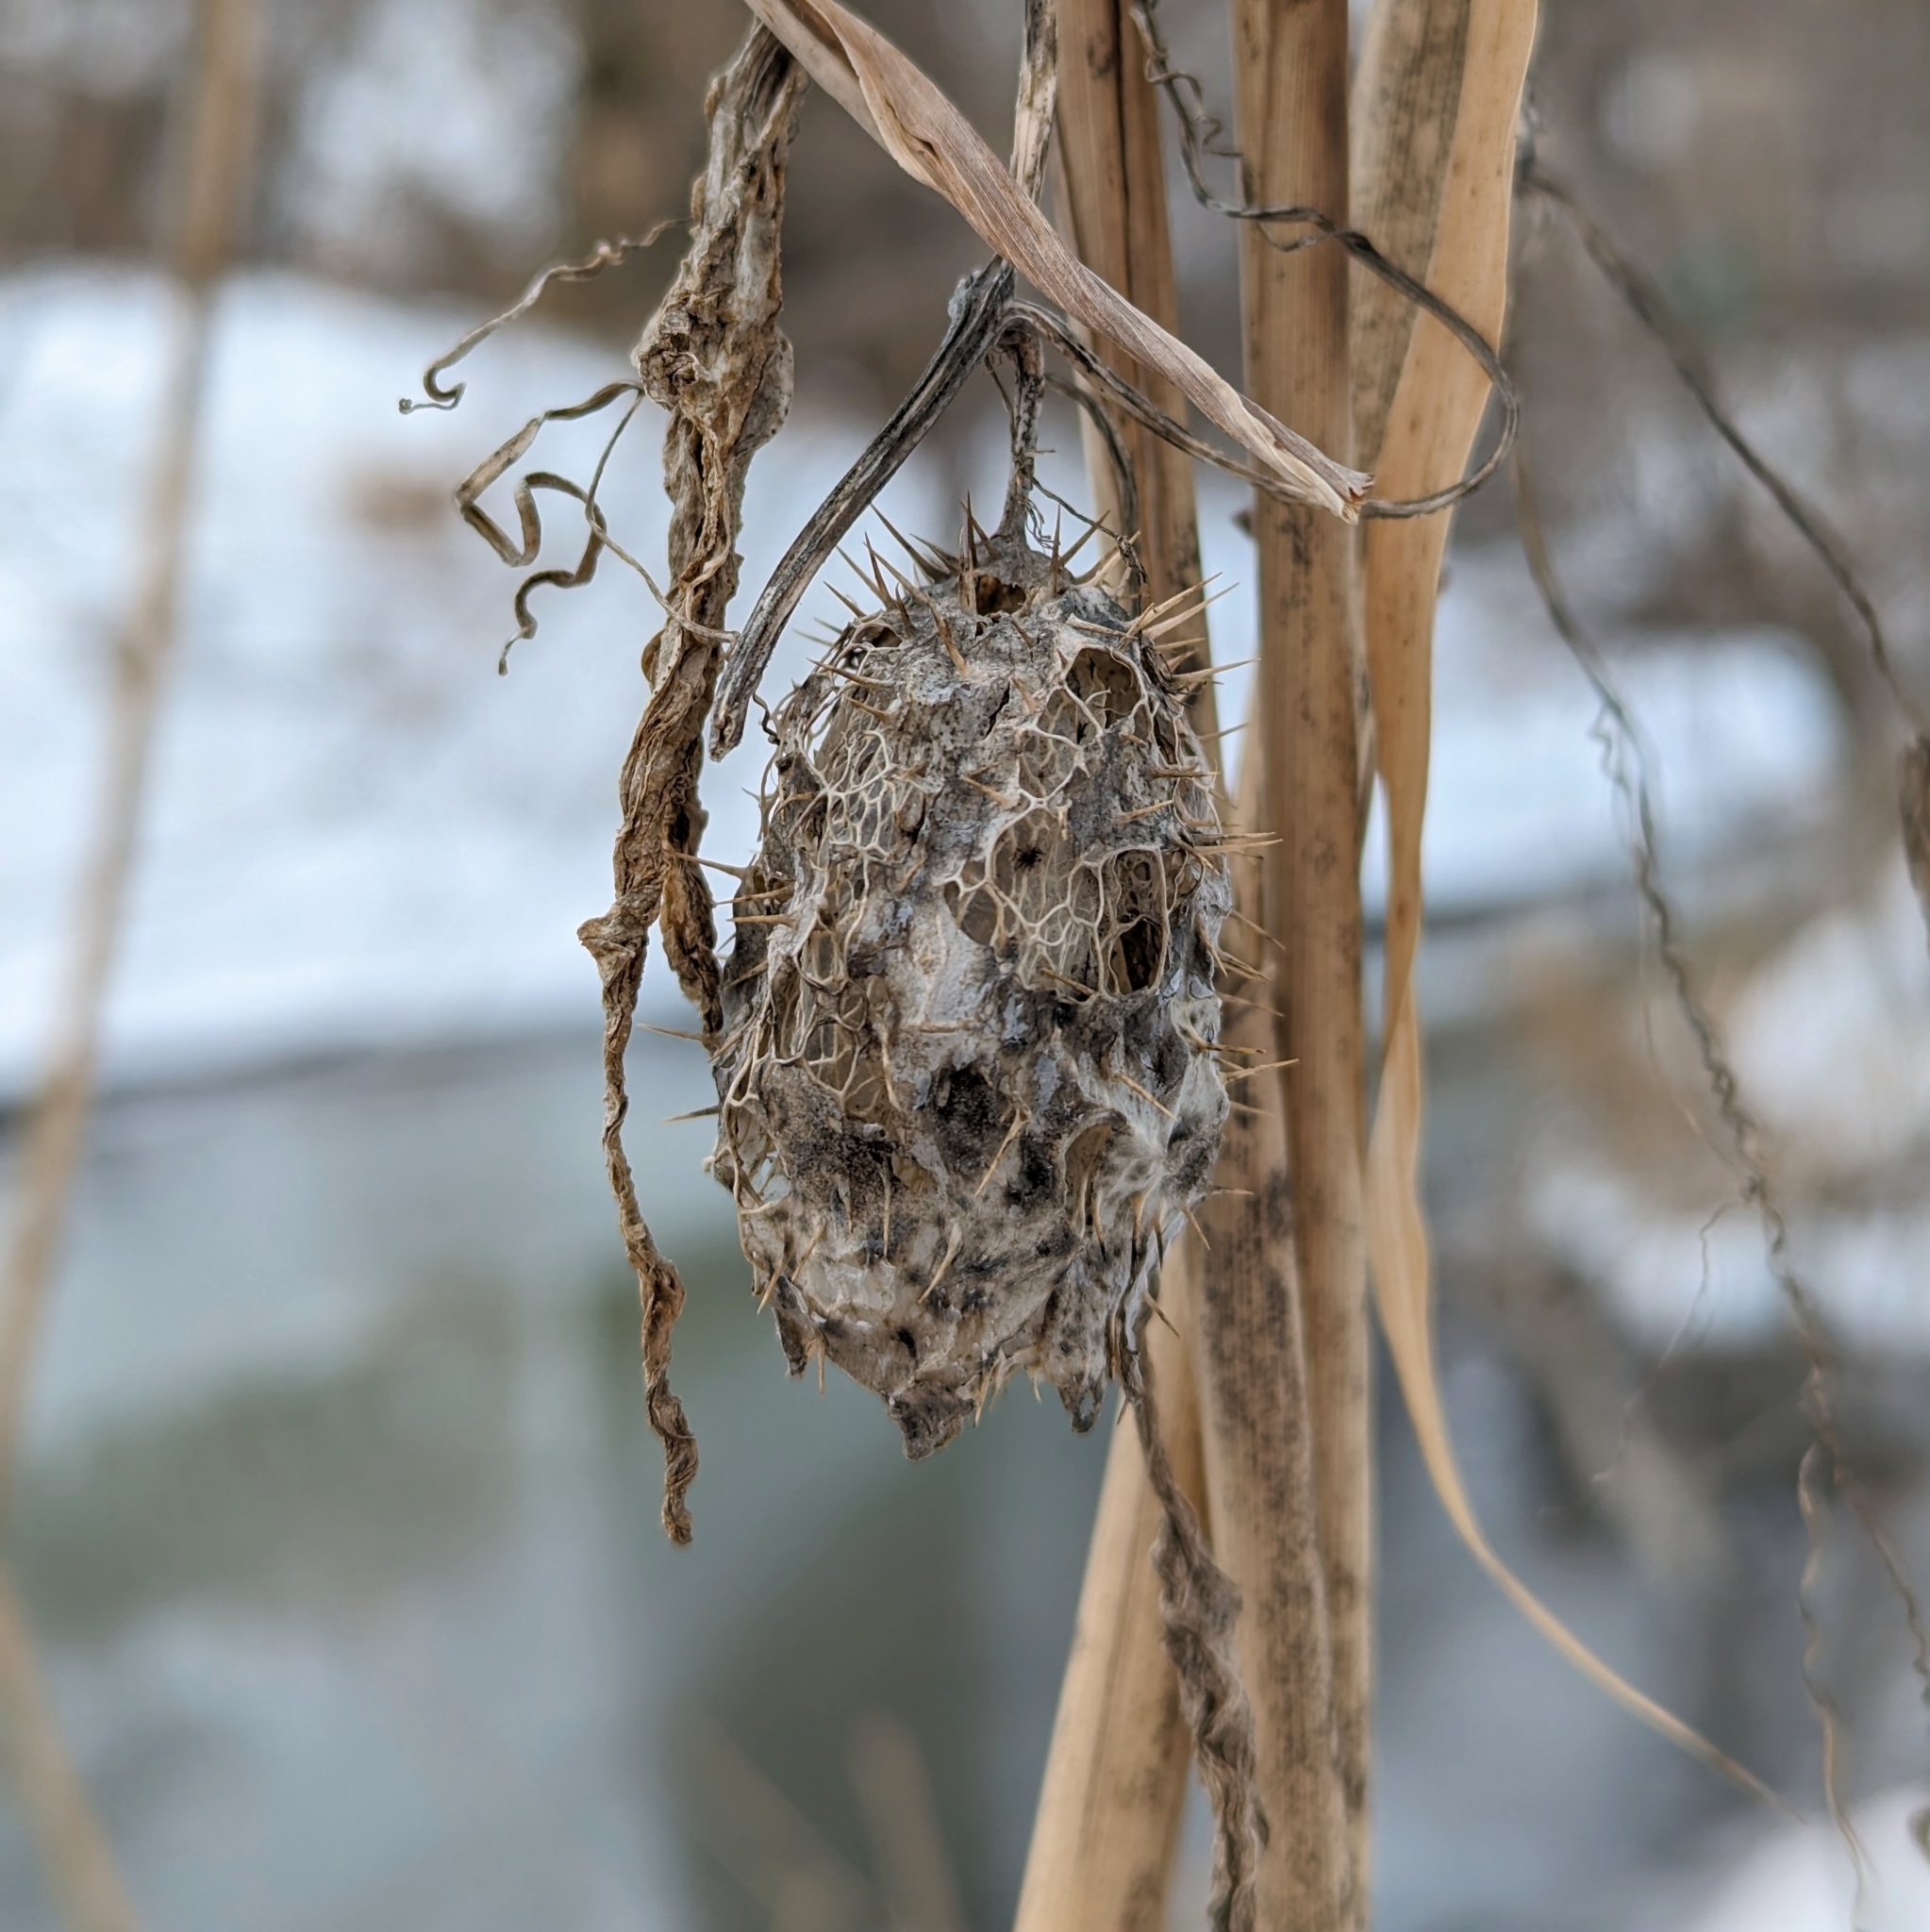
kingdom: Plantae
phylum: Tracheophyta
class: Magnoliopsida
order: Cucurbitales
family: Cucurbitaceae
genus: Echinocystis
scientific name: Echinocystis lobata
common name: Wild cucumber
